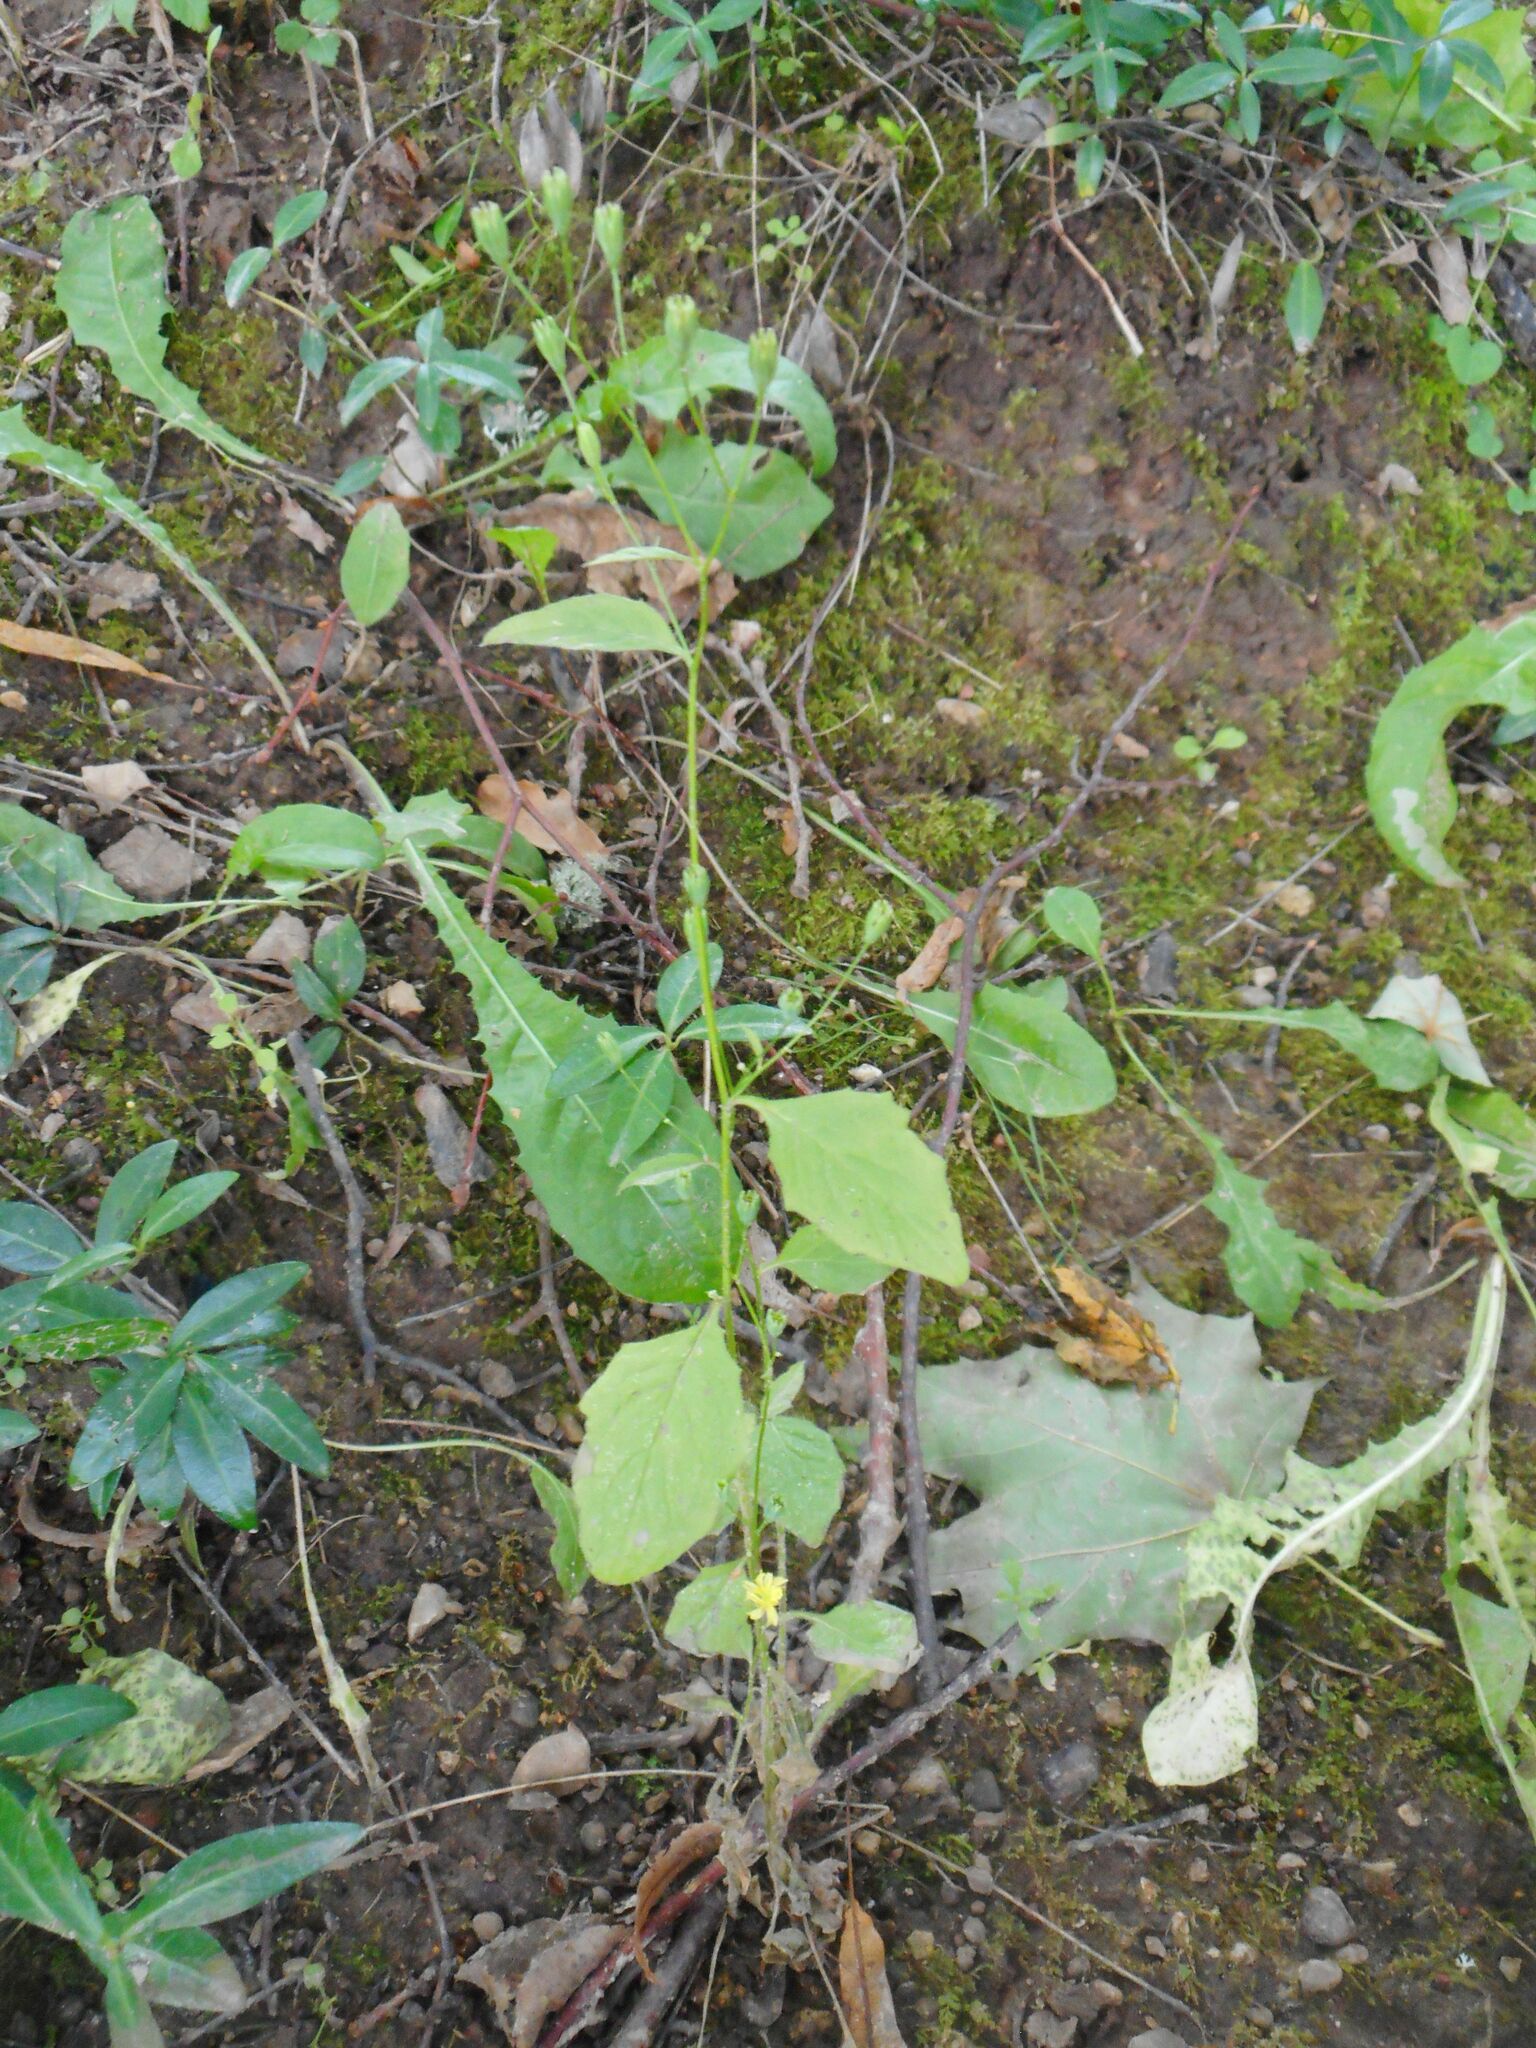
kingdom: Plantae
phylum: Tracheophyta
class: Magnoliopsida
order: Asterales
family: Asteraceae
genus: Lapsana
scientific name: Lapsana communis
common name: Nipplewort
